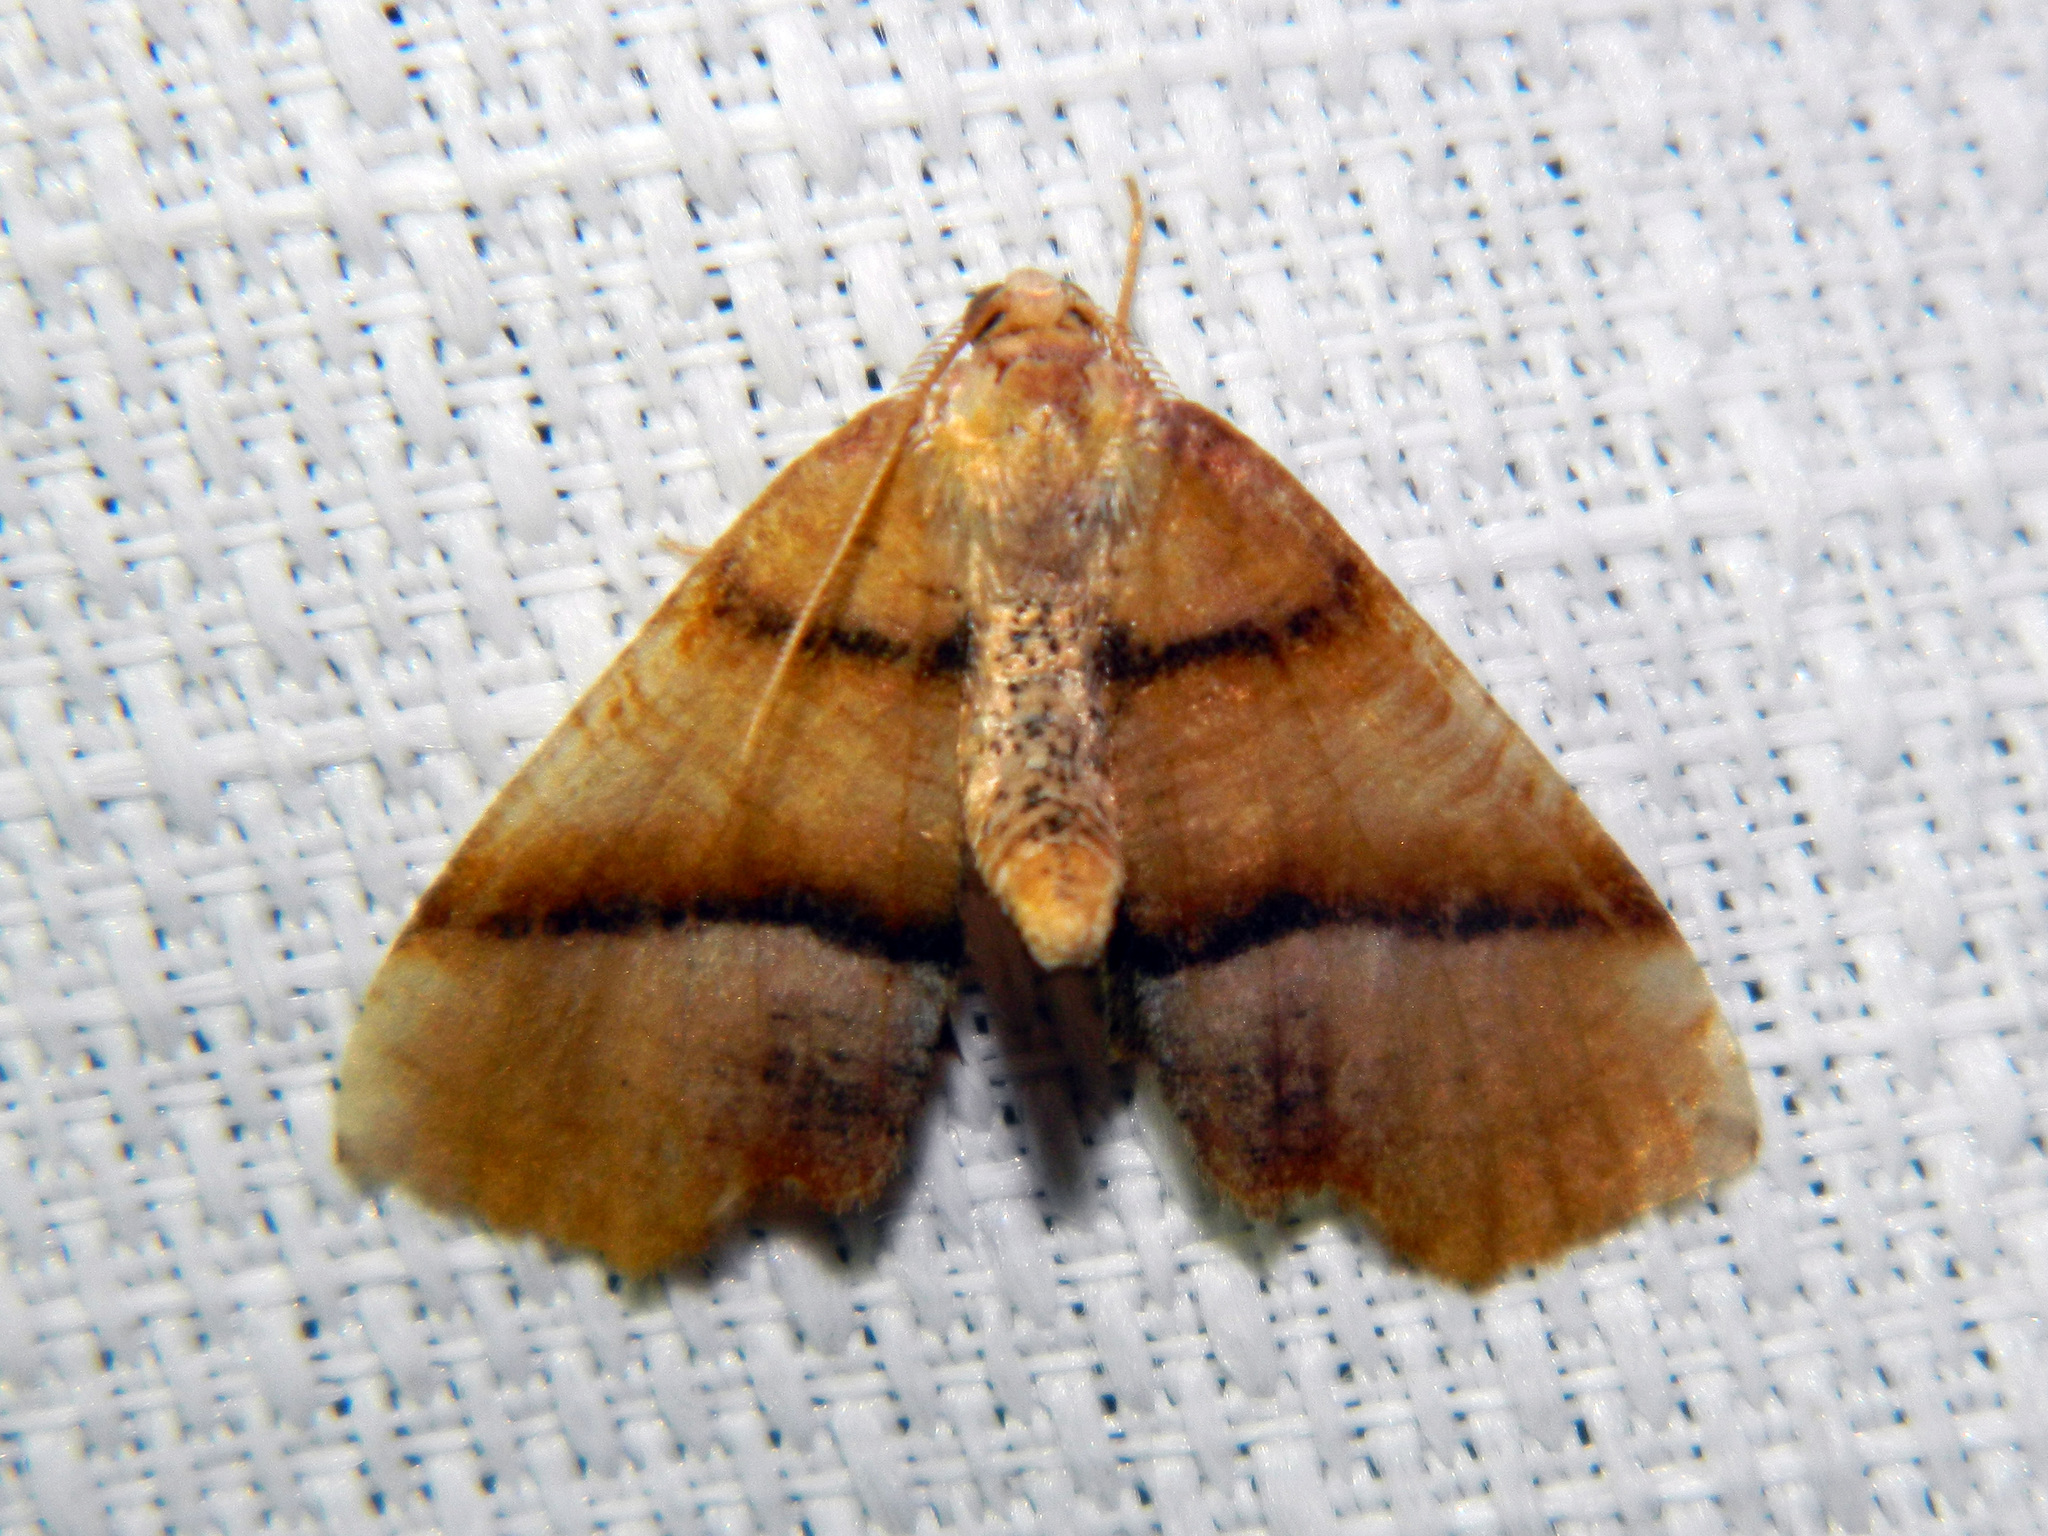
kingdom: Animalia
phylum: Arthropoda
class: Insecta
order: Lepidoptera
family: Geometridae
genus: Plagodis
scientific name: Plagodis phlogosaria
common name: Straight-lined plagodis
